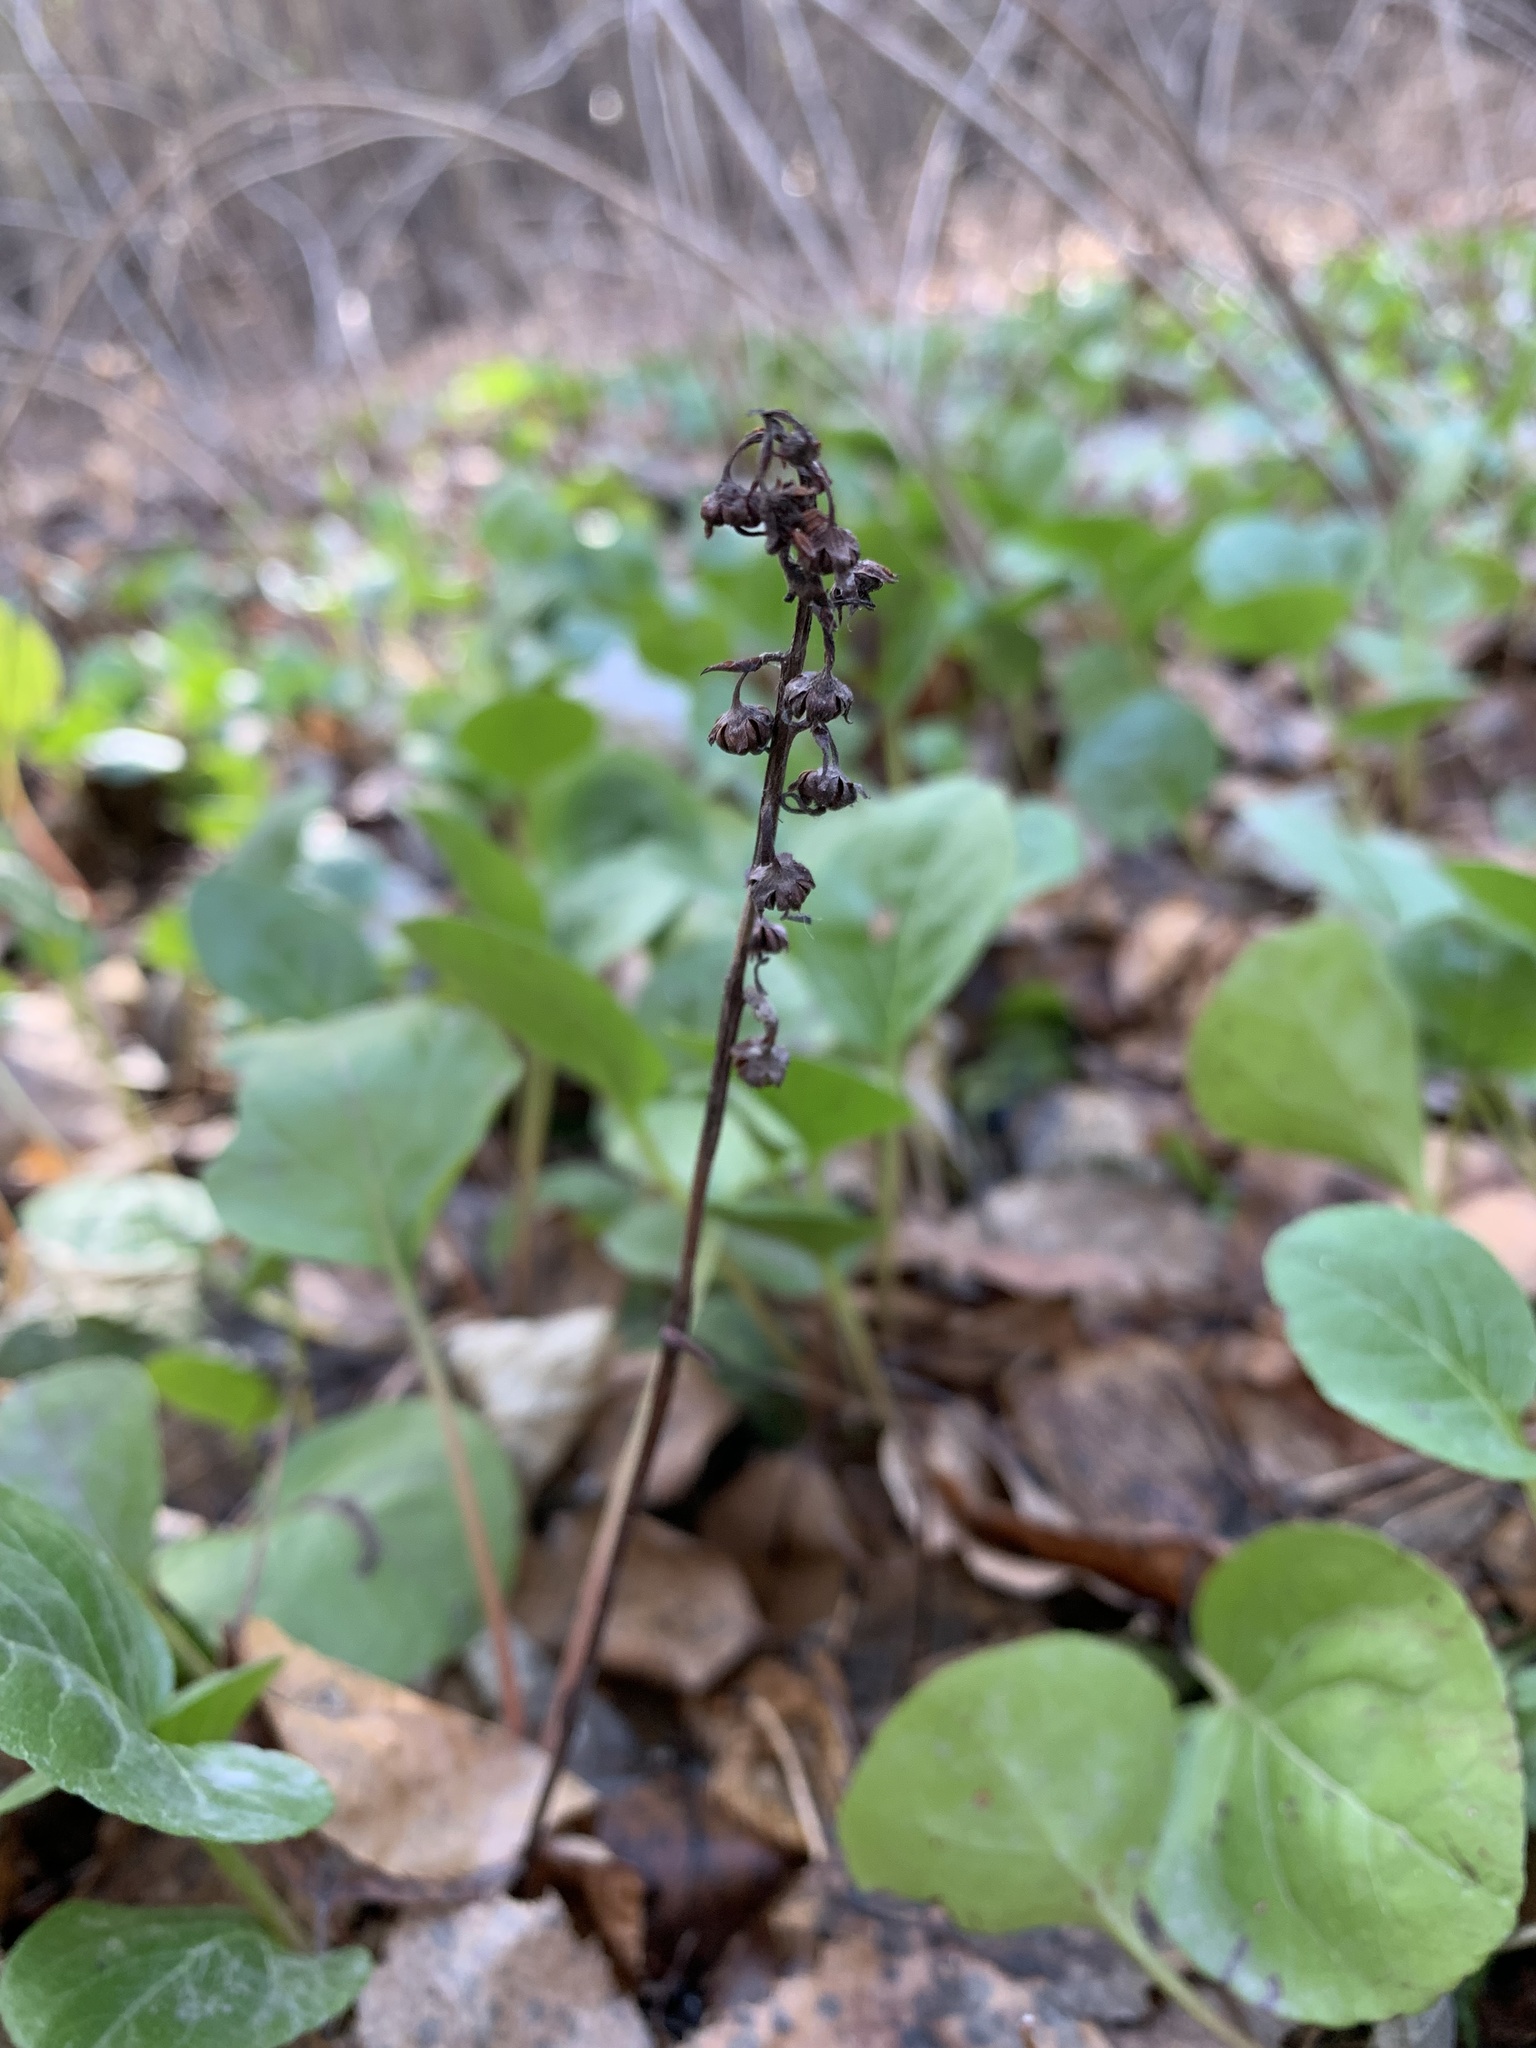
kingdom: Plantae
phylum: Tracheophyta
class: Magnoliopsida
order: Ericales
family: Ericaceae
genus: Pyrola
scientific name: Pyrola rotundifolia
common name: Round-leaved wintergreen
